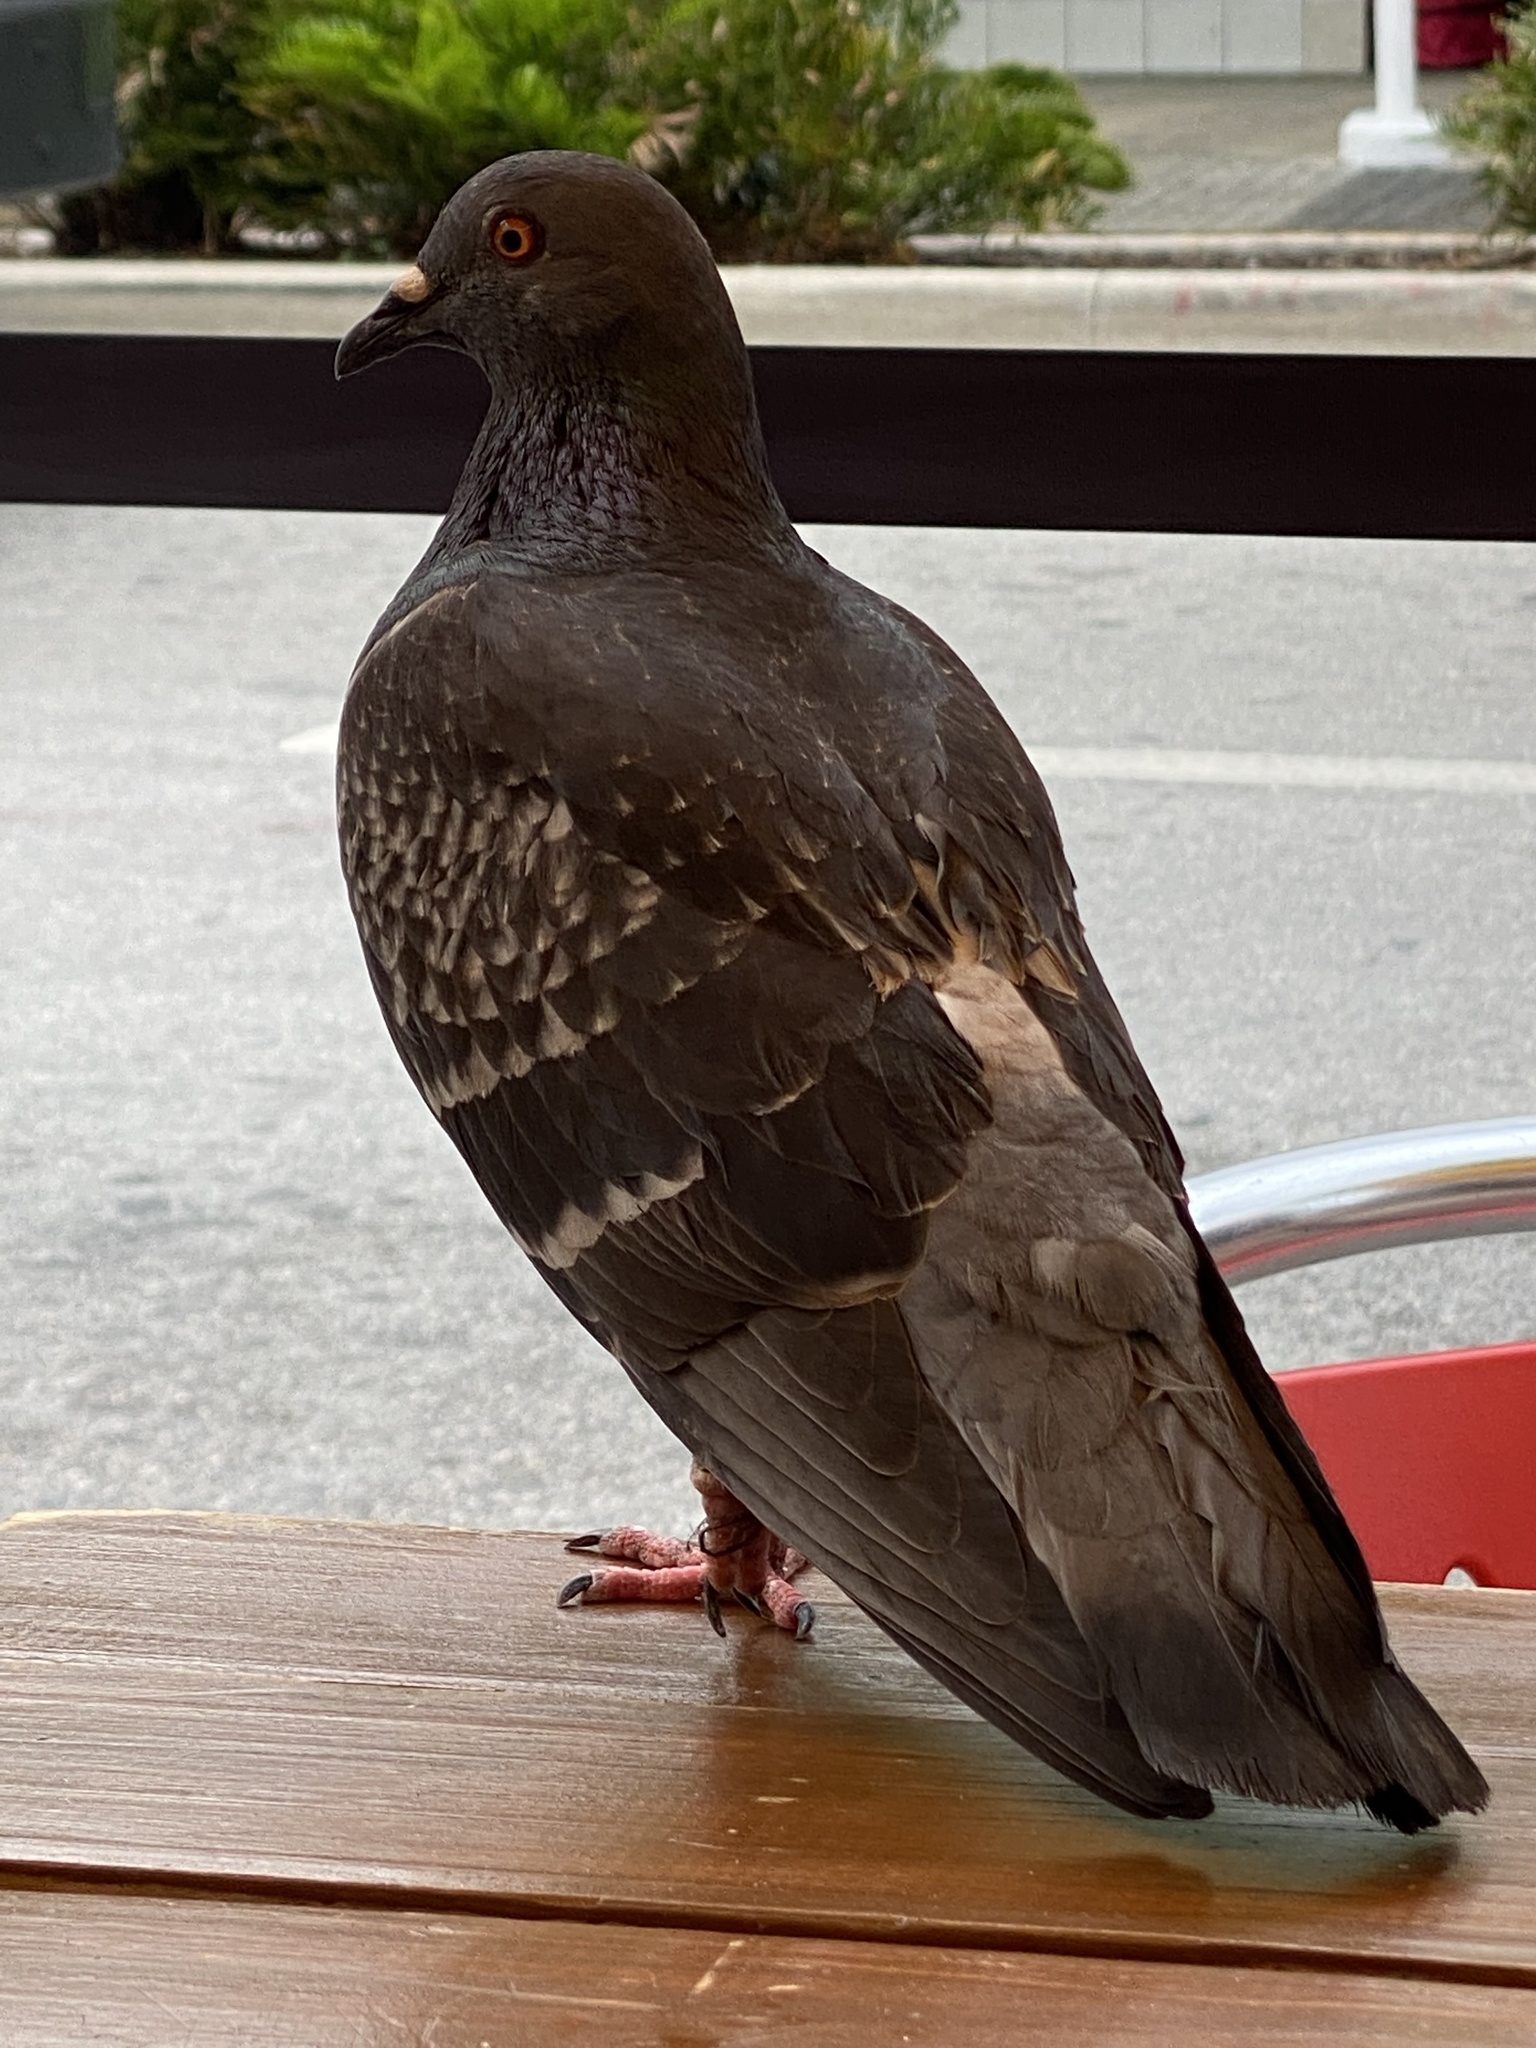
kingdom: Animalia
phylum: Chordata
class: Aves
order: Columbiformes
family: Columbidae
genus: Columba
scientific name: Columba livia
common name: Rock pigeon
